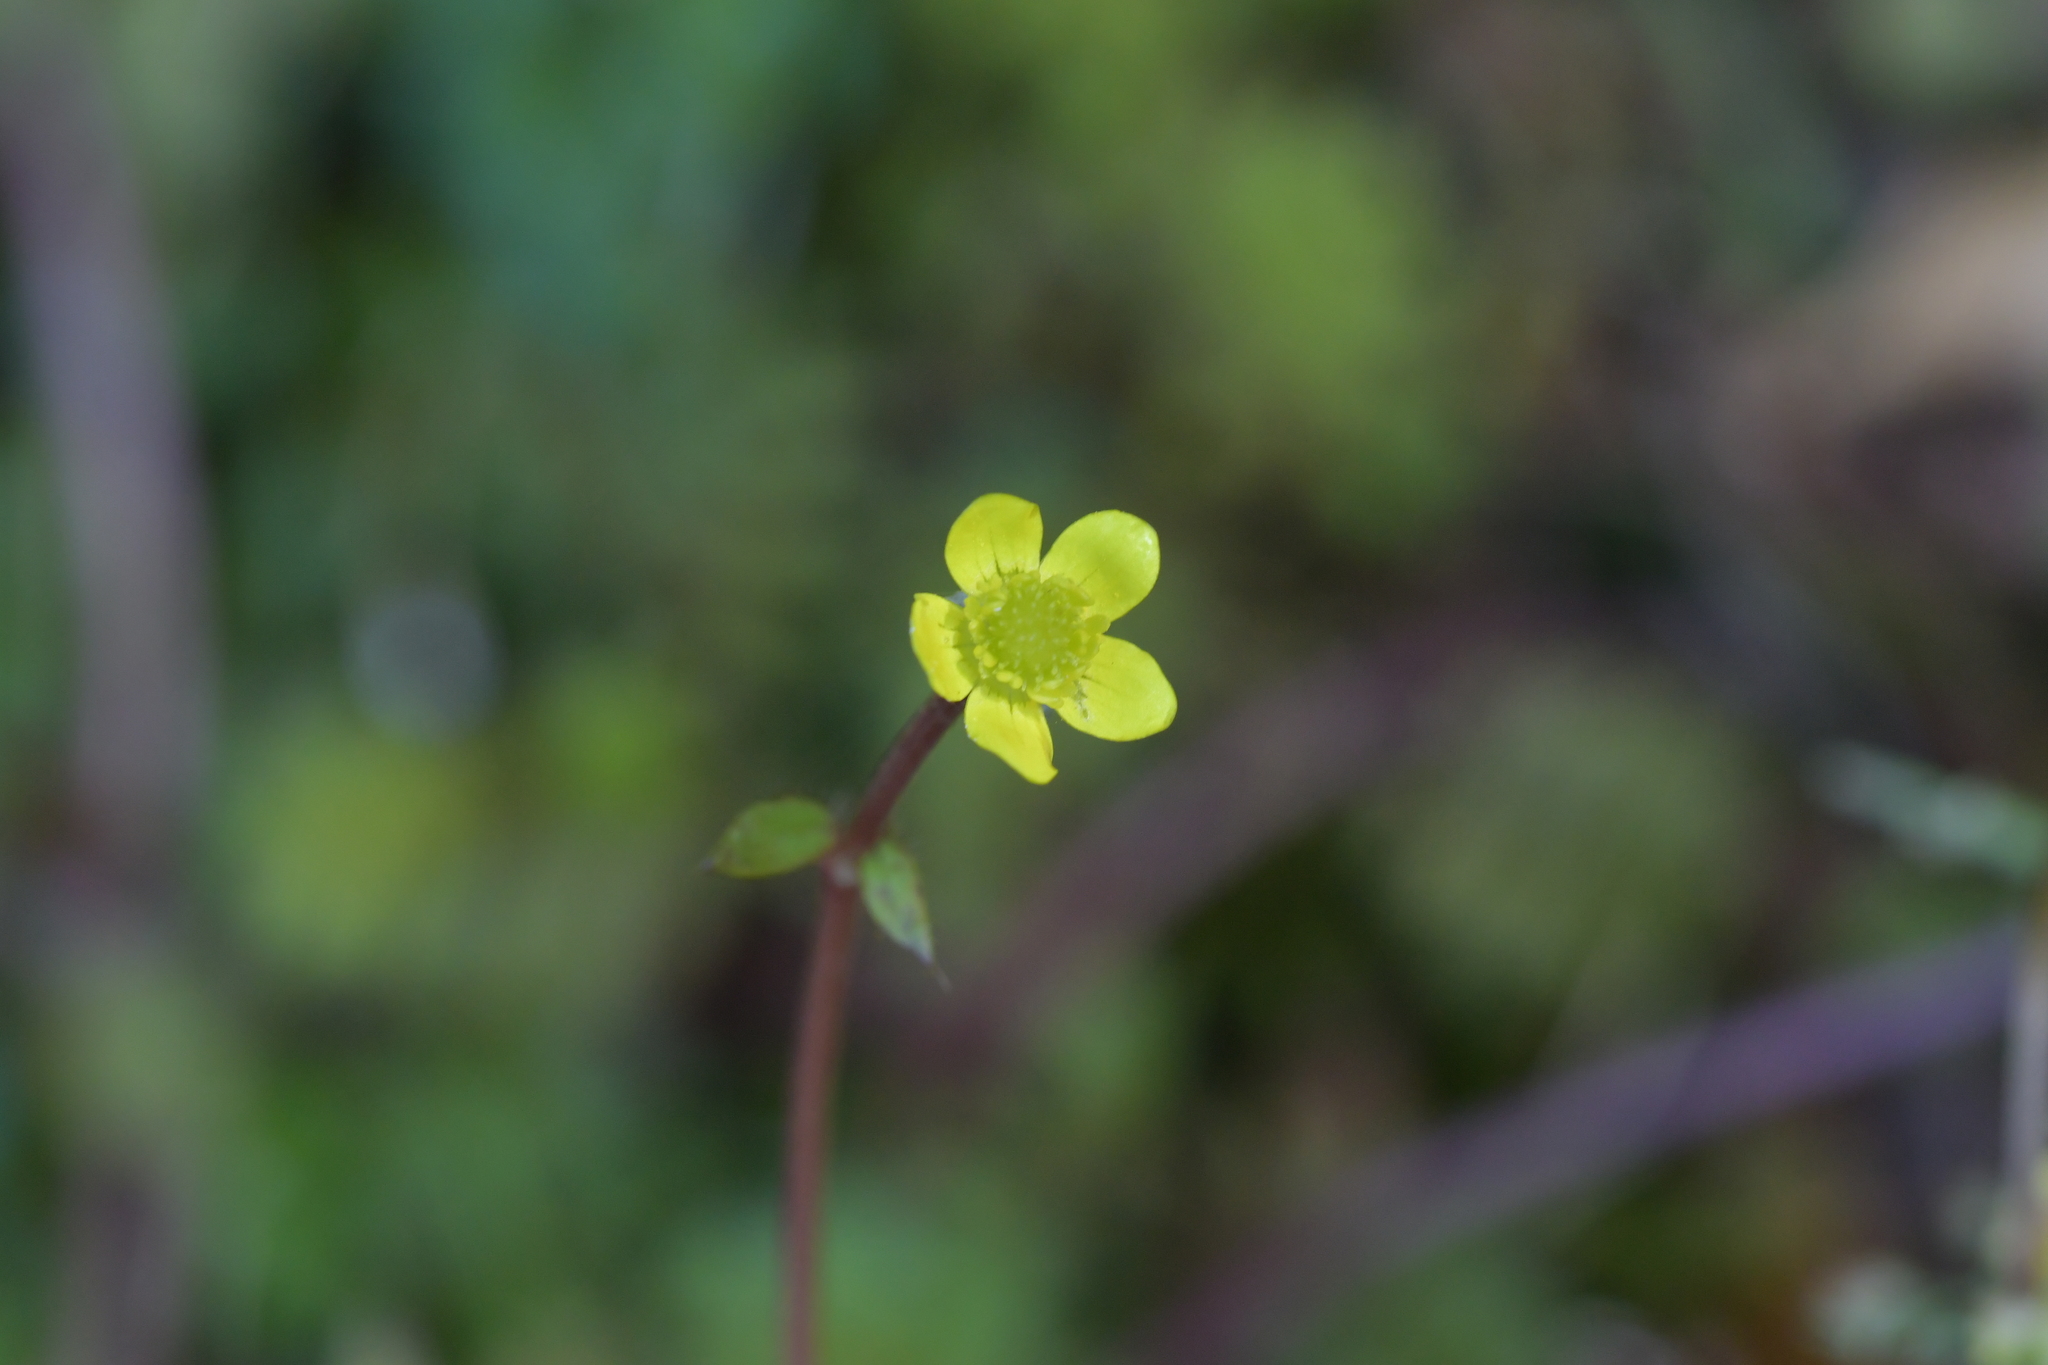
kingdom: Plantae
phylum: Tracheophyta
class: Magnoliopsida
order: Ranunculales
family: Ranunculaceae
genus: Ranunculus
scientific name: Ranunculus reflexus
